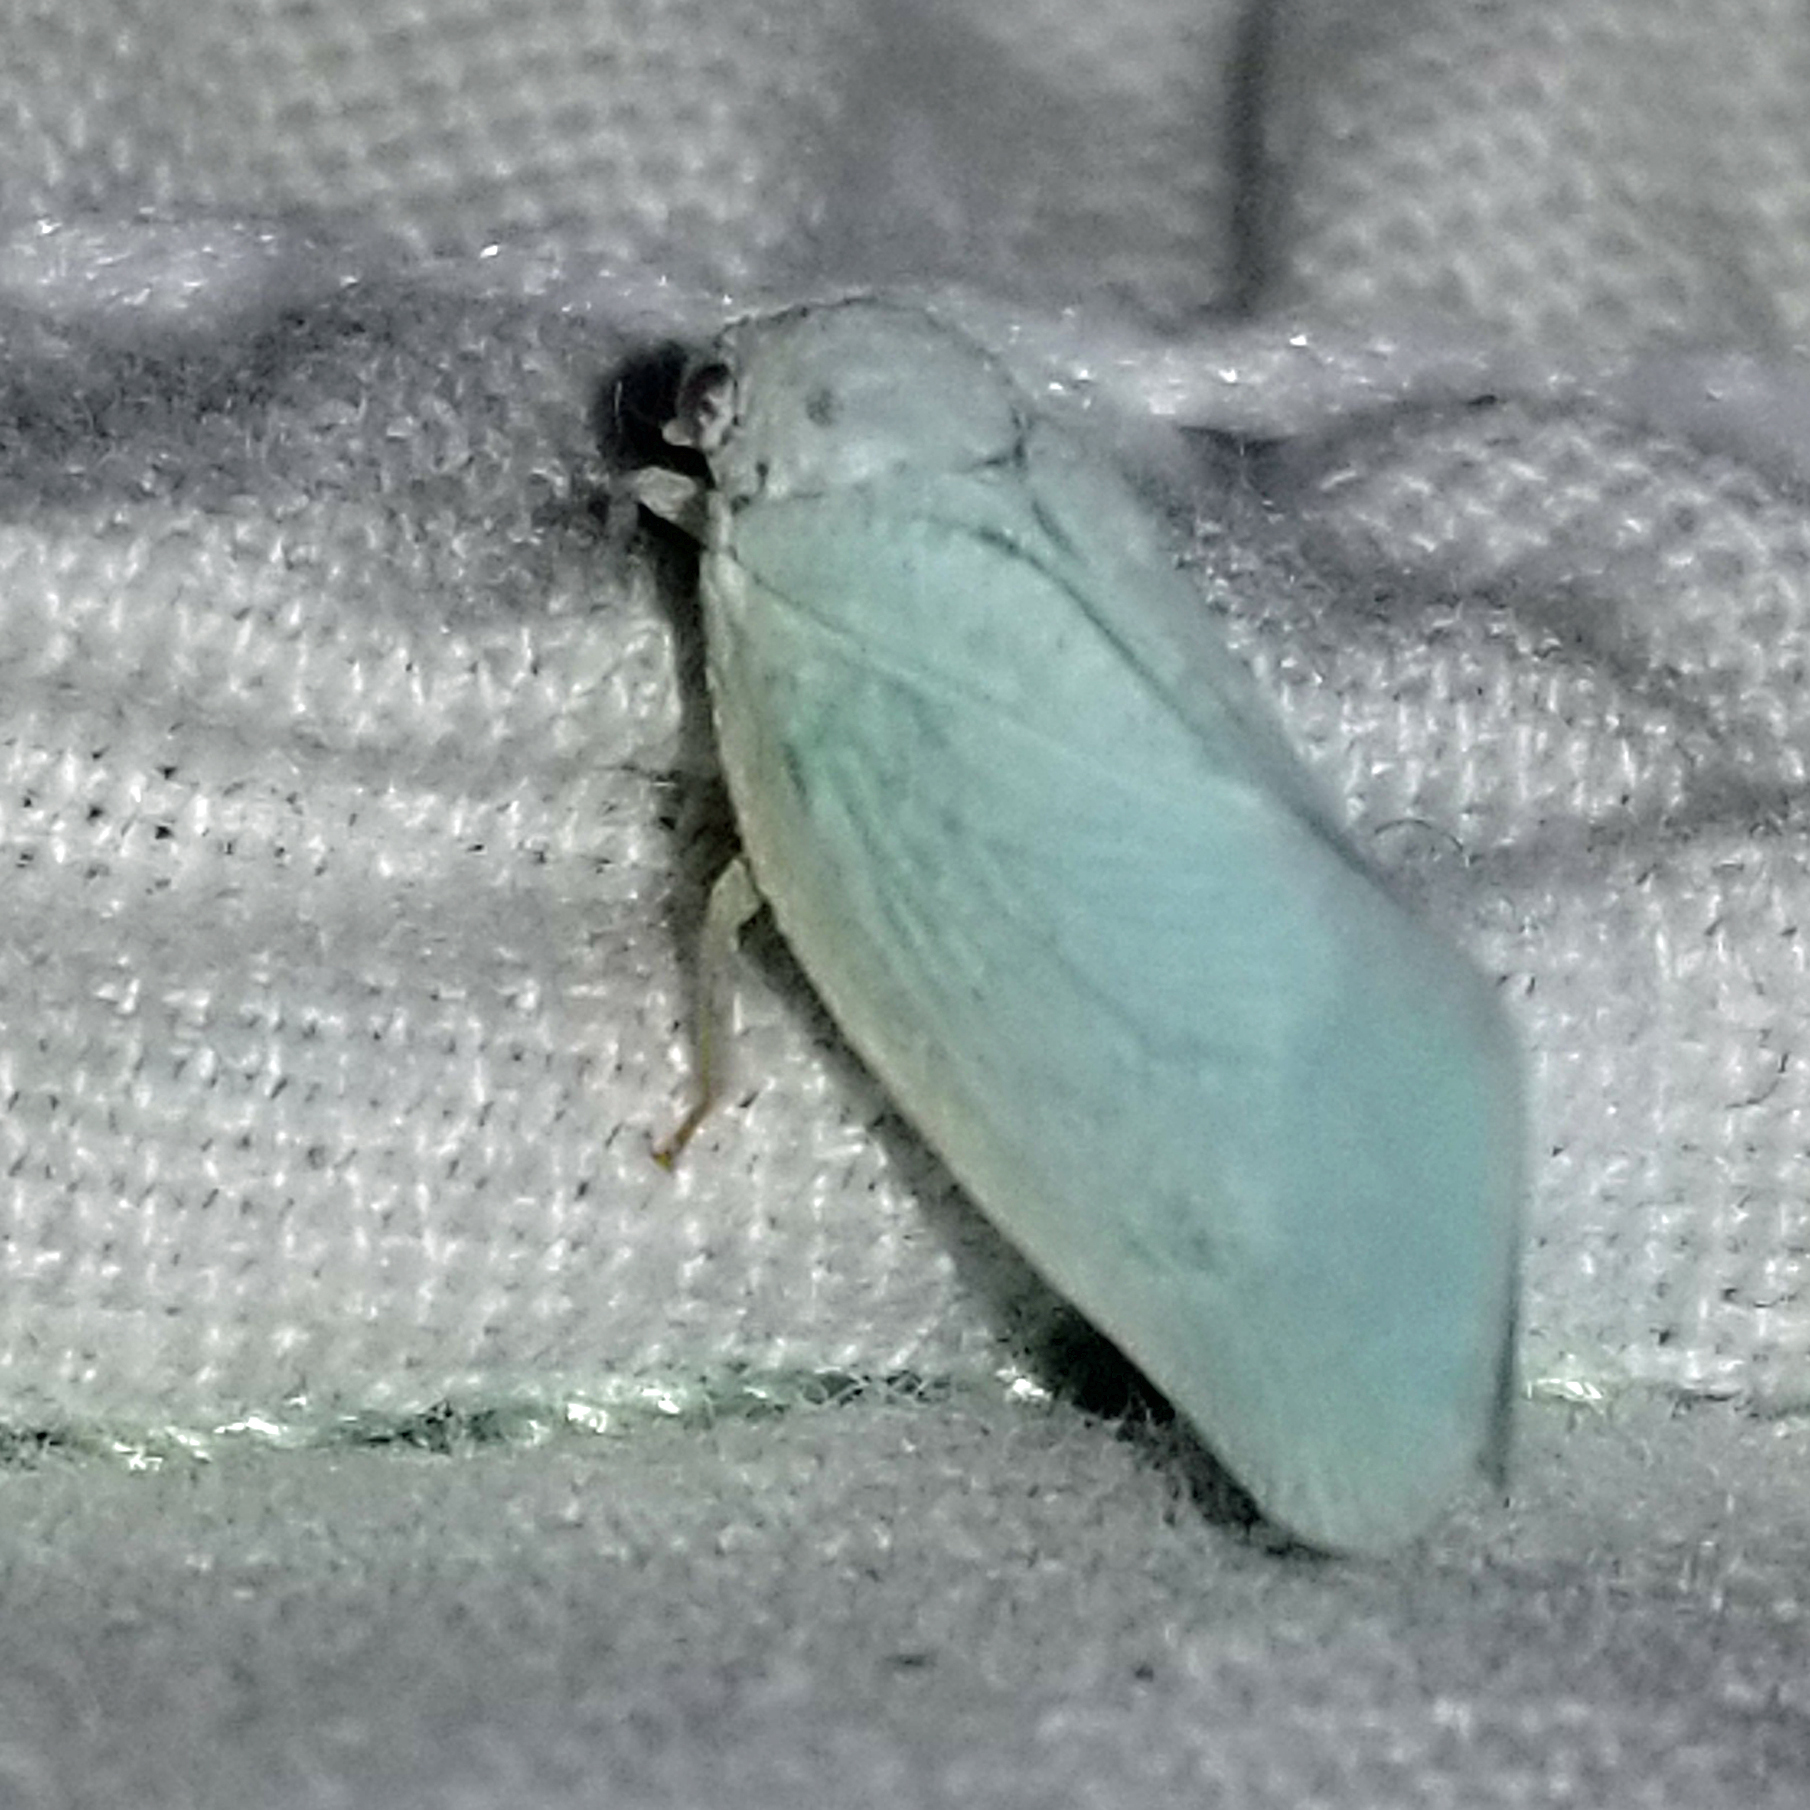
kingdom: Animalia
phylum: Arthropoda
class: Insecta
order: Hemiptera
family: Flatidae
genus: Flatormenis
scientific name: Flatormenis proxima
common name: Northern flatid planthopper
